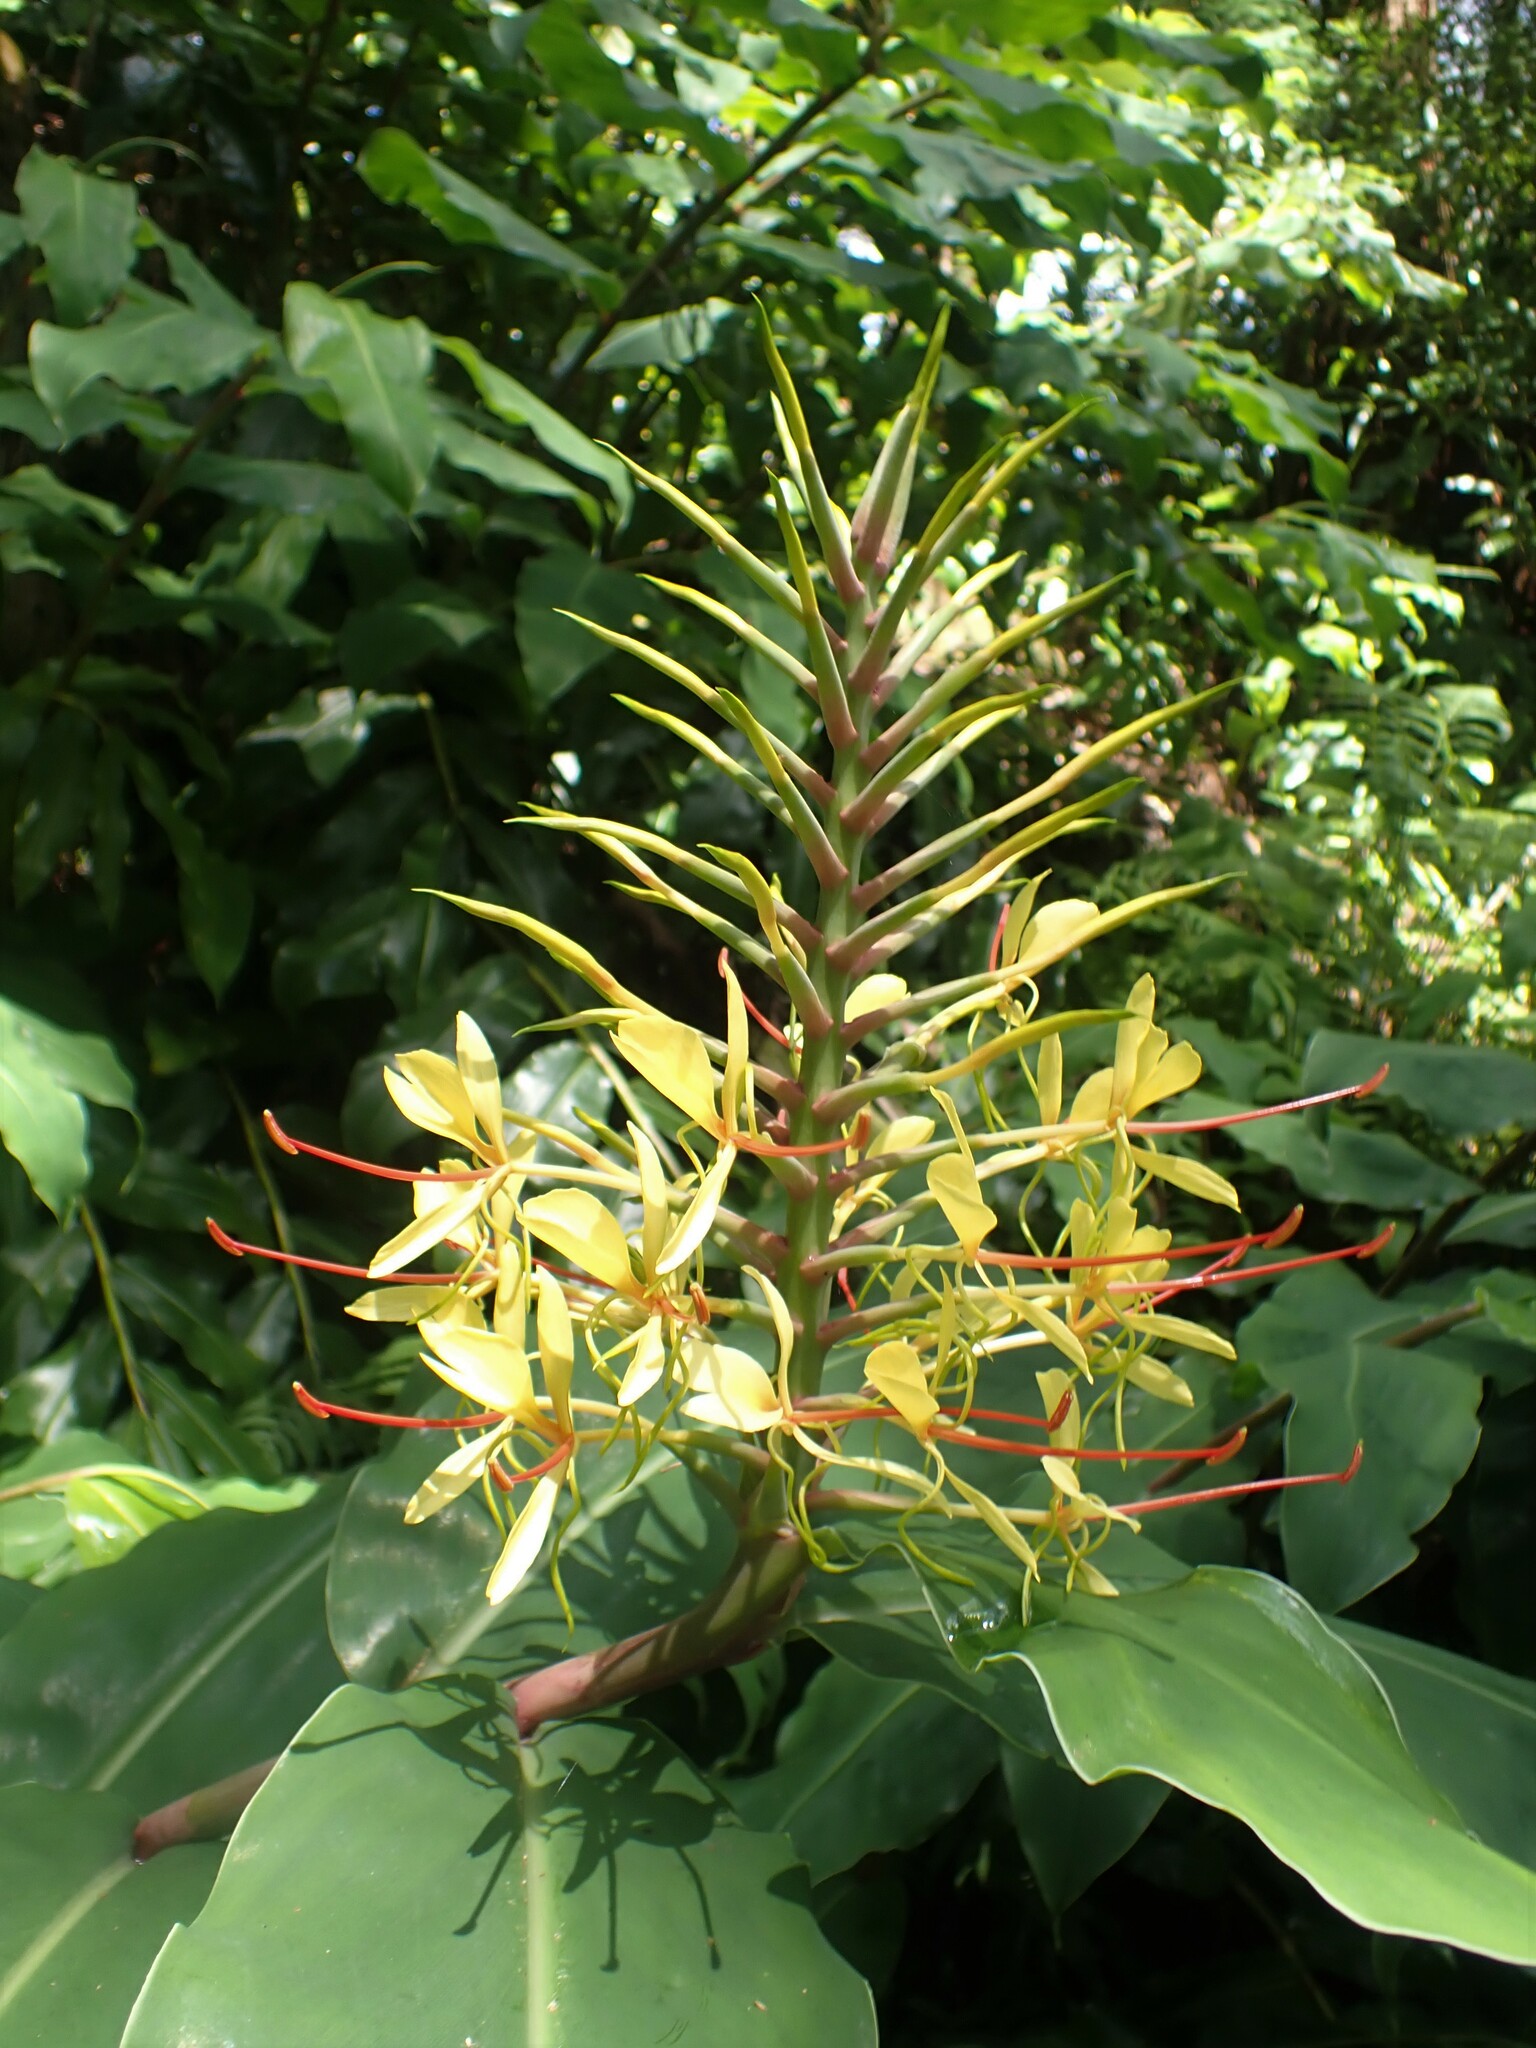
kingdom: Plantae
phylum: Tracheophyta
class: Liliopsida
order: Zingiberales
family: Zingiberaceae
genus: Hedychium
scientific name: Hedychium gardnerianum
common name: Himalayan ginger
